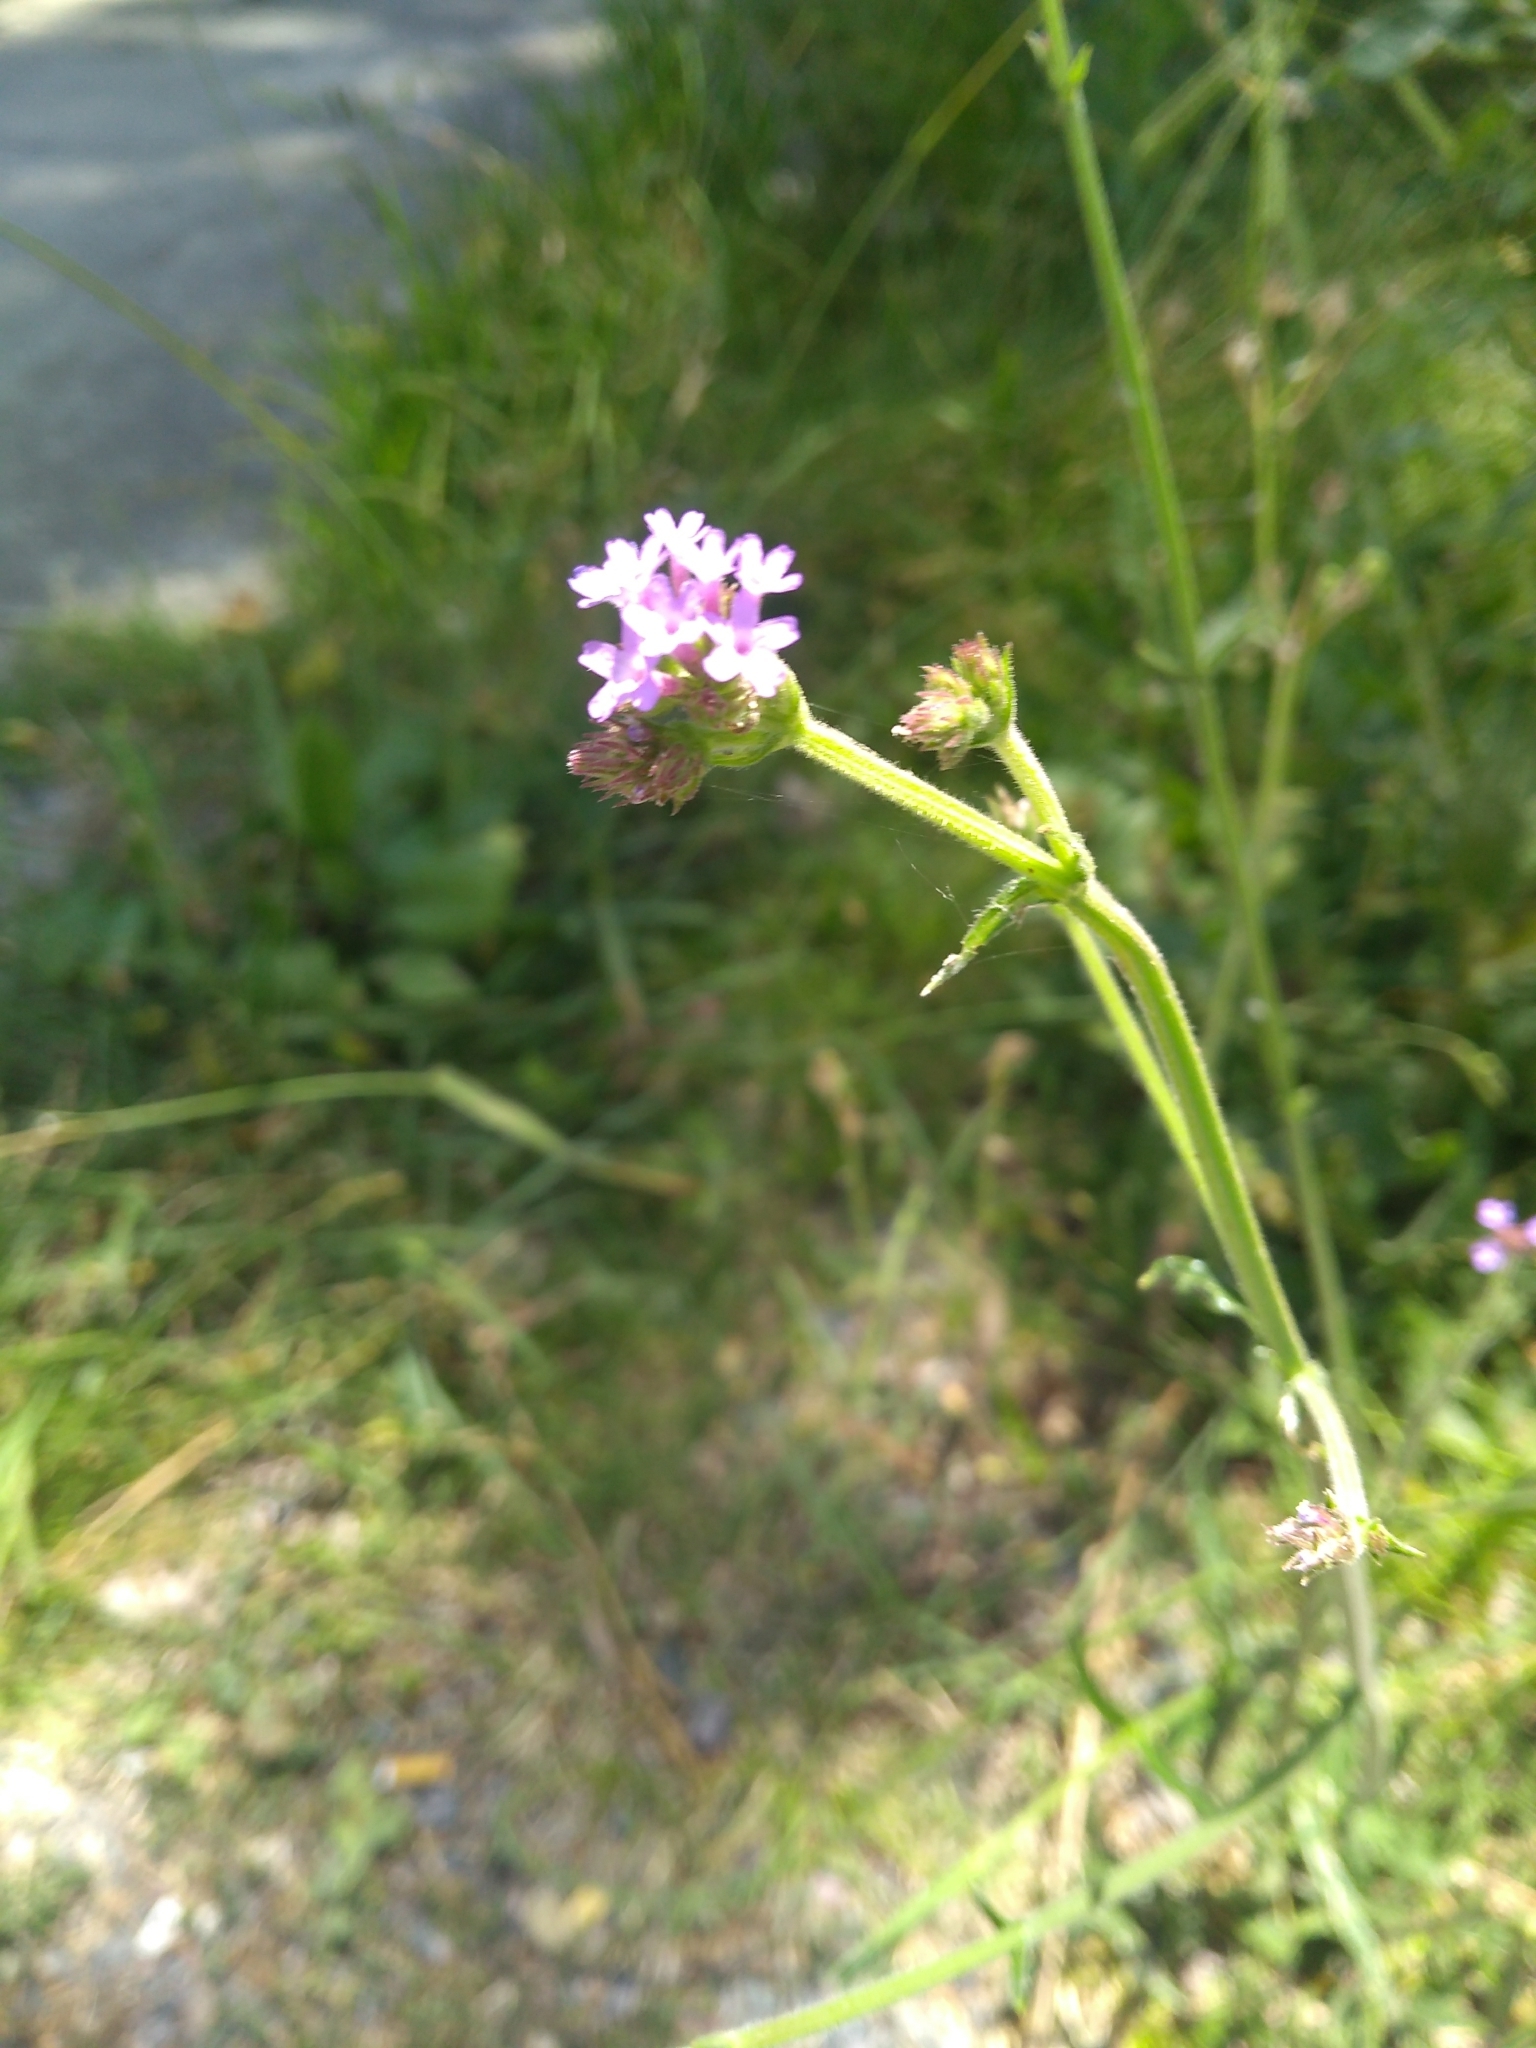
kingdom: Plantae
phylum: Tracheophyta
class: Magnoliopsida
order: Lamiales
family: Verbenaceae
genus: Verbena
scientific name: Verbena bonariensis
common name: Purpletop vervain
